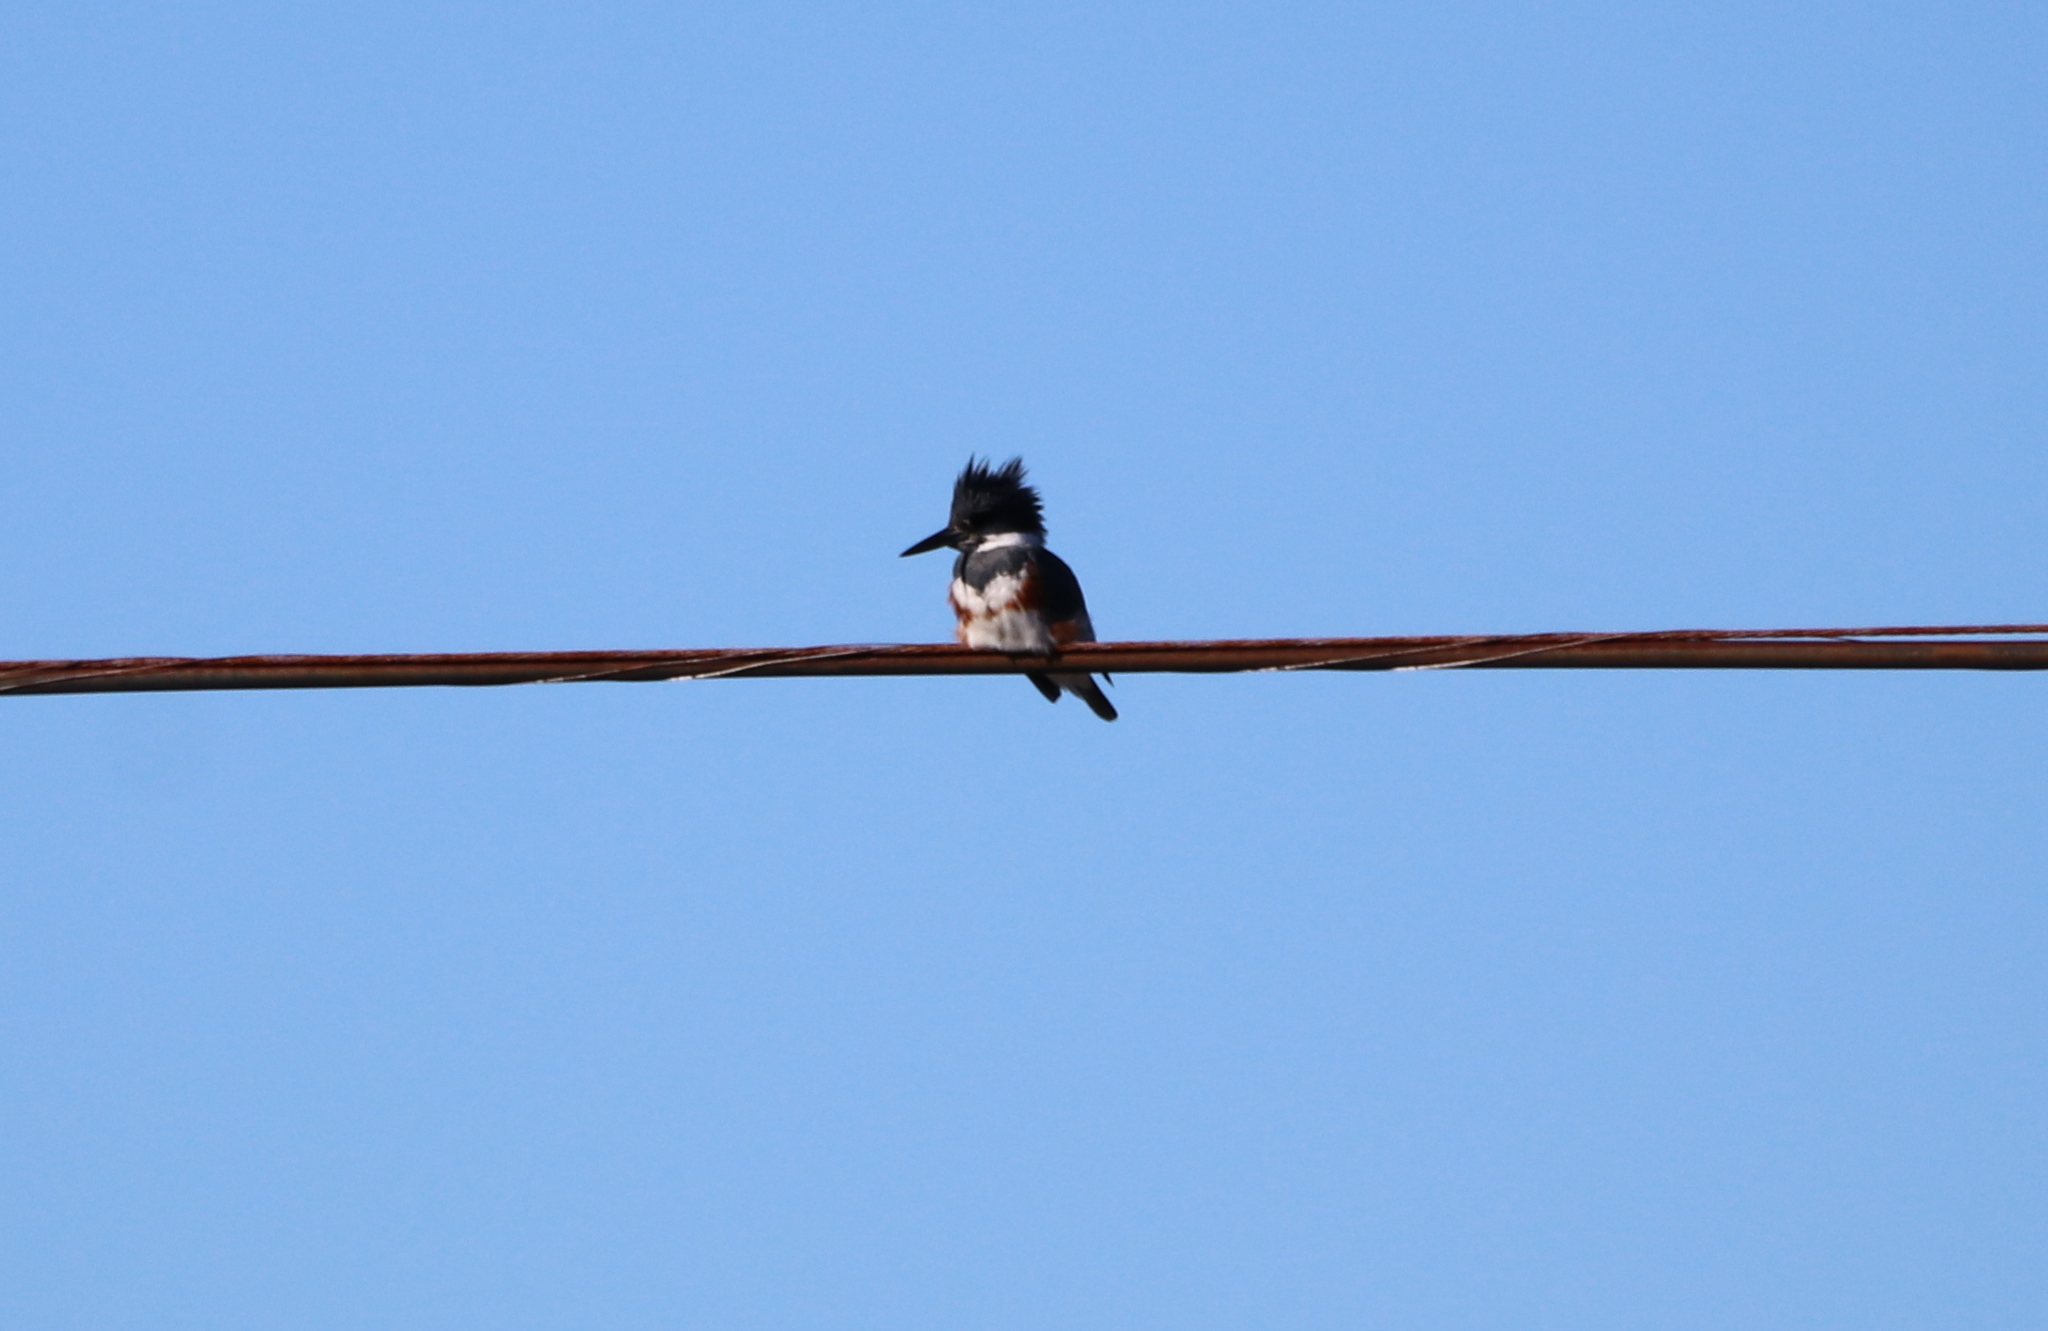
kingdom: Animalia
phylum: Chordata
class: Aves
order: Coraciiformes
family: Alcedinidae
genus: Megaceryle
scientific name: Megaceryle alcyon
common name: Belted kingfisher
